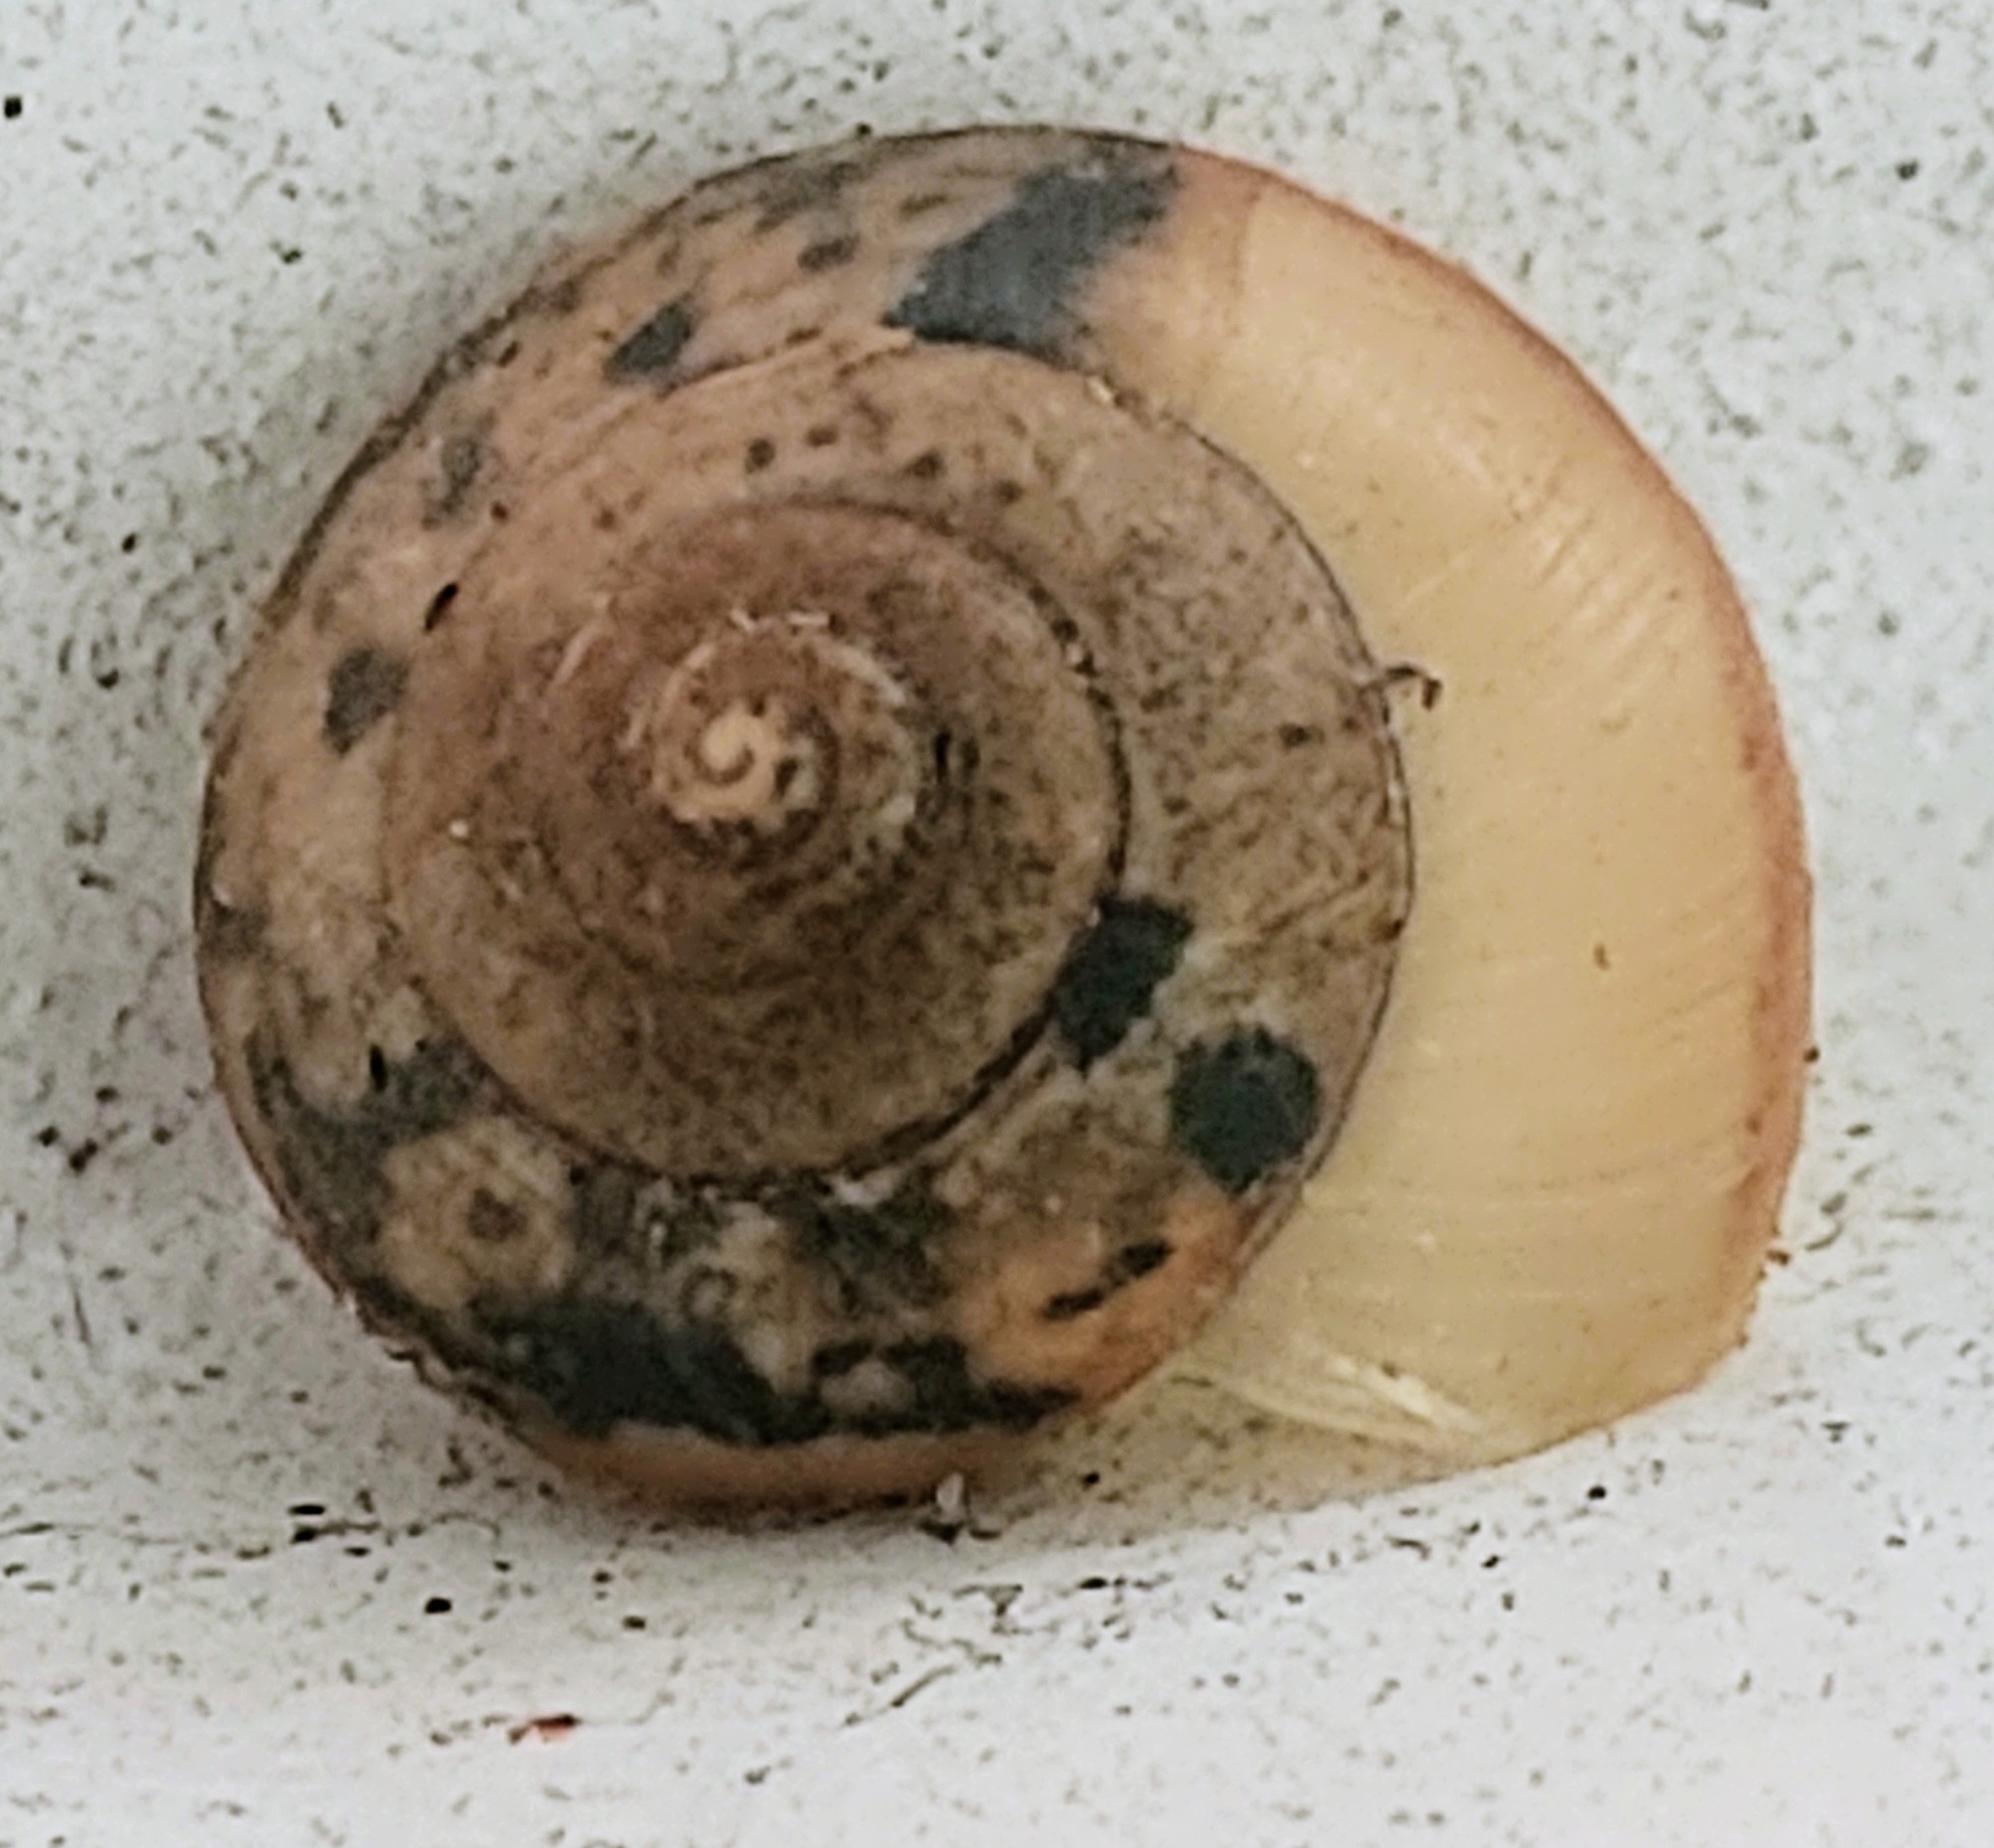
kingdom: Animalia
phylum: Mollusca
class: Gastropoda
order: Stylommatophora
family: Camaenidae
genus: Bradybaena
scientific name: Bradybaena similaris
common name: Asian trampsnail
